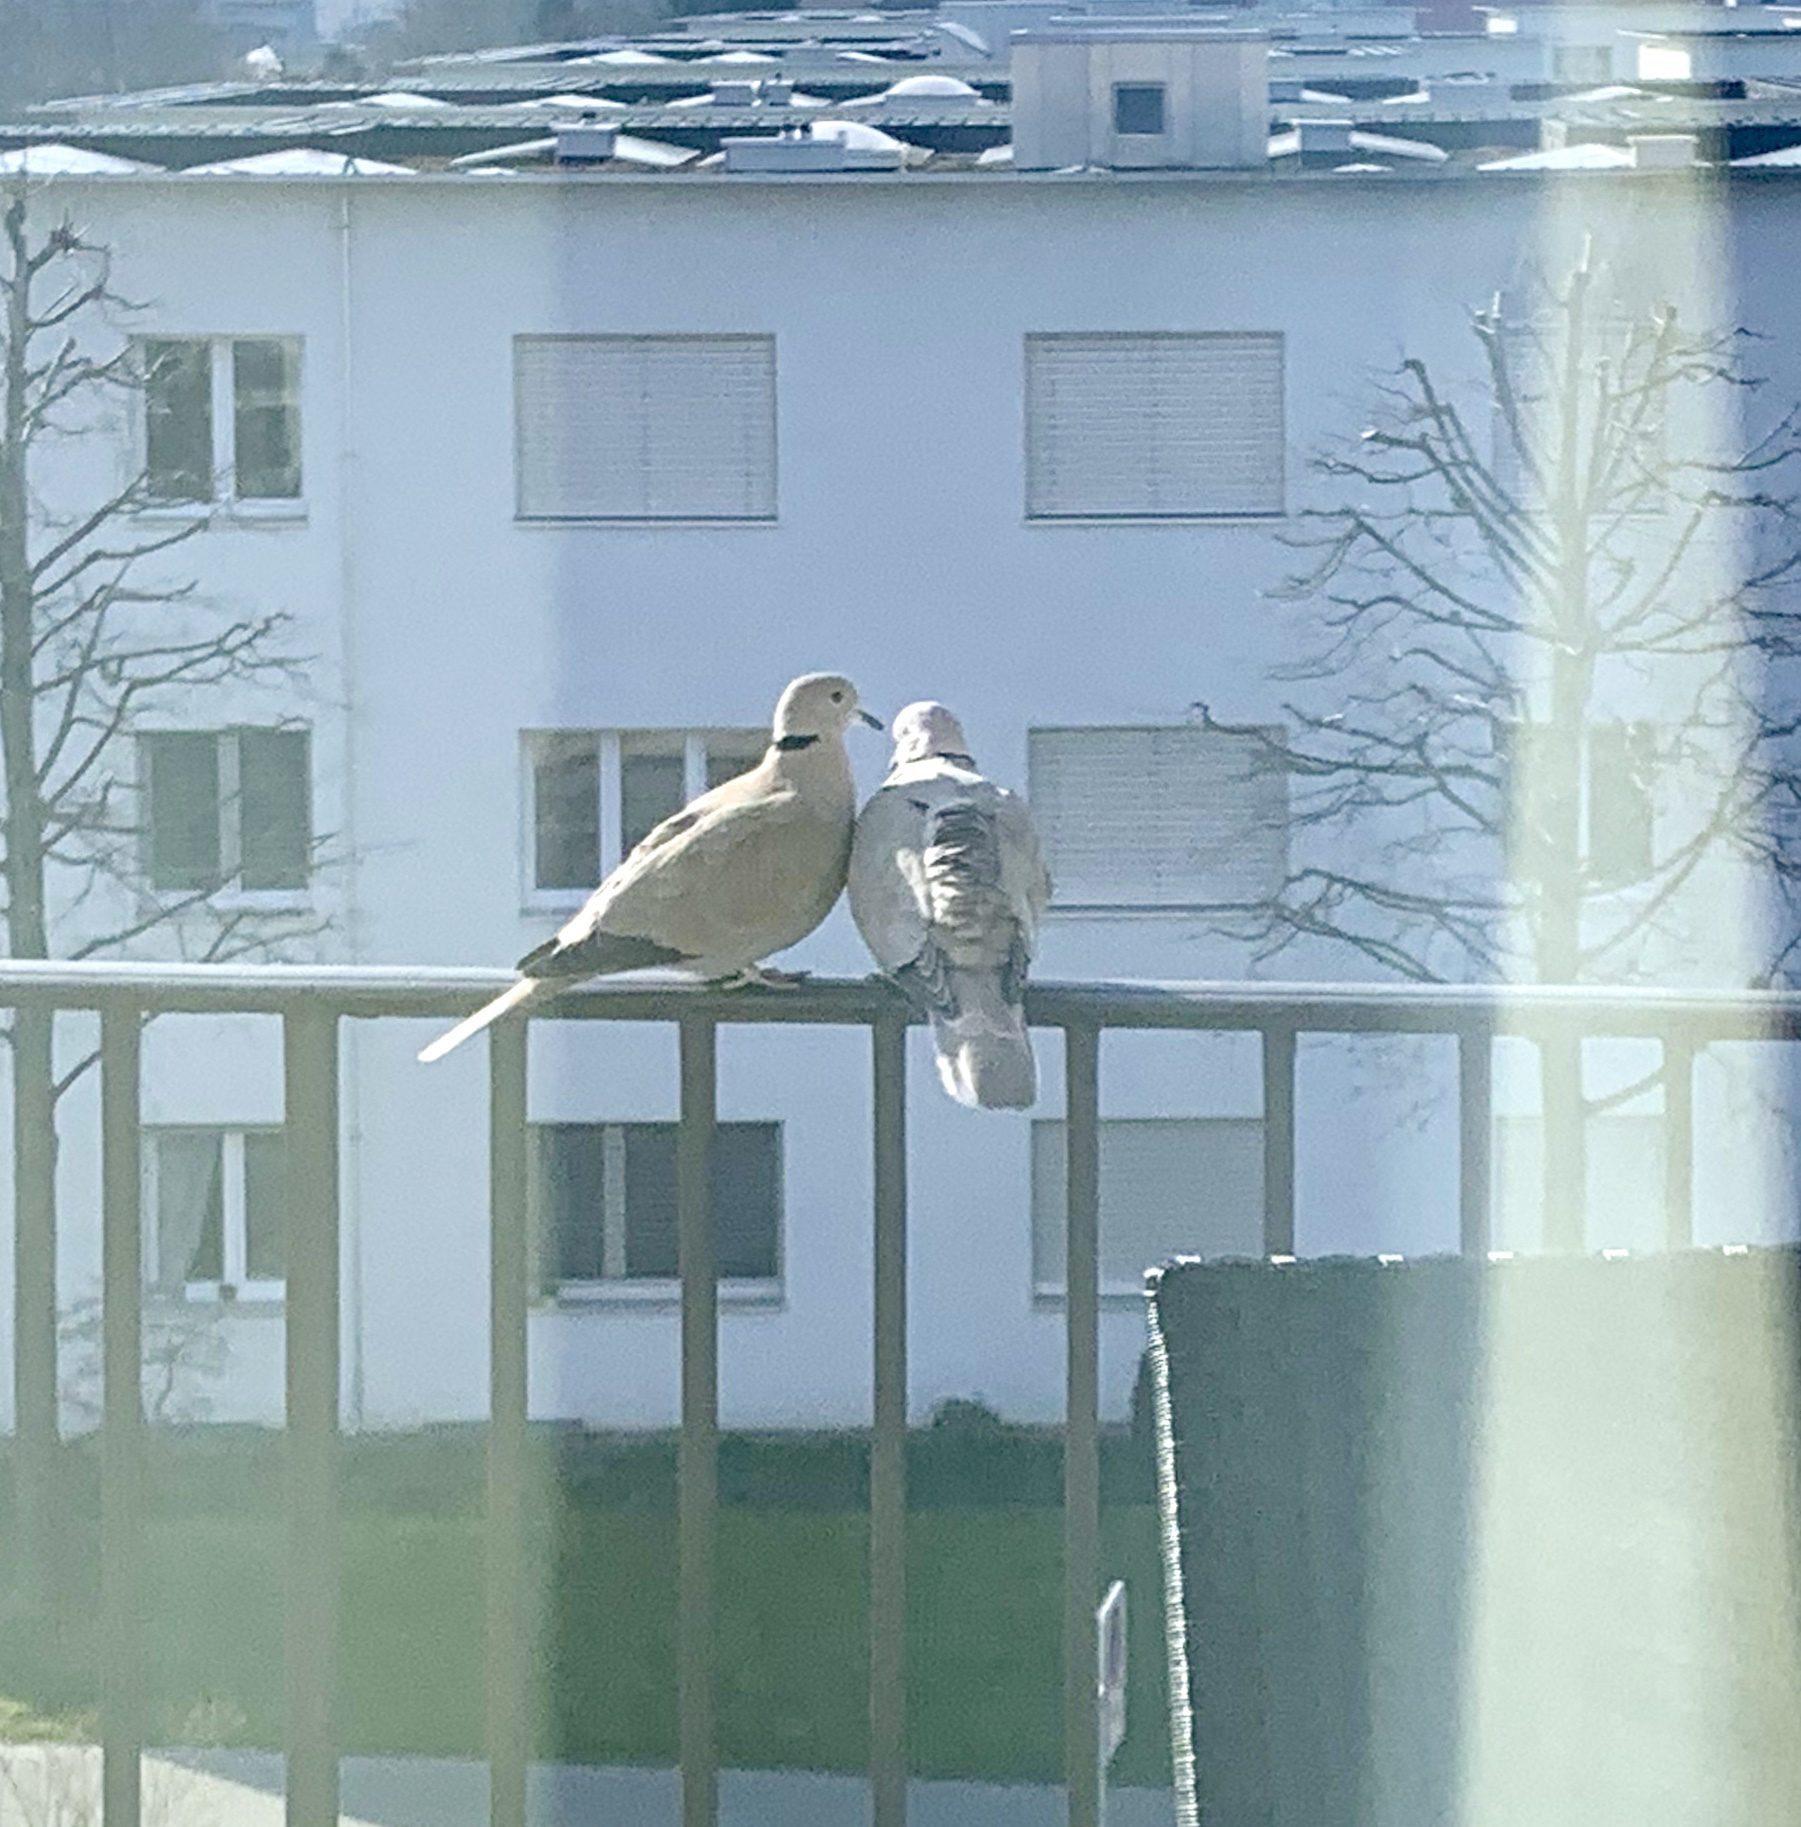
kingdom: Animalia
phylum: Chordata
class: Aves
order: Columbiformes
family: Columbidae
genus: Streptopelia
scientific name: Streptopelia decaocto
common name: Eurasian collared dove
